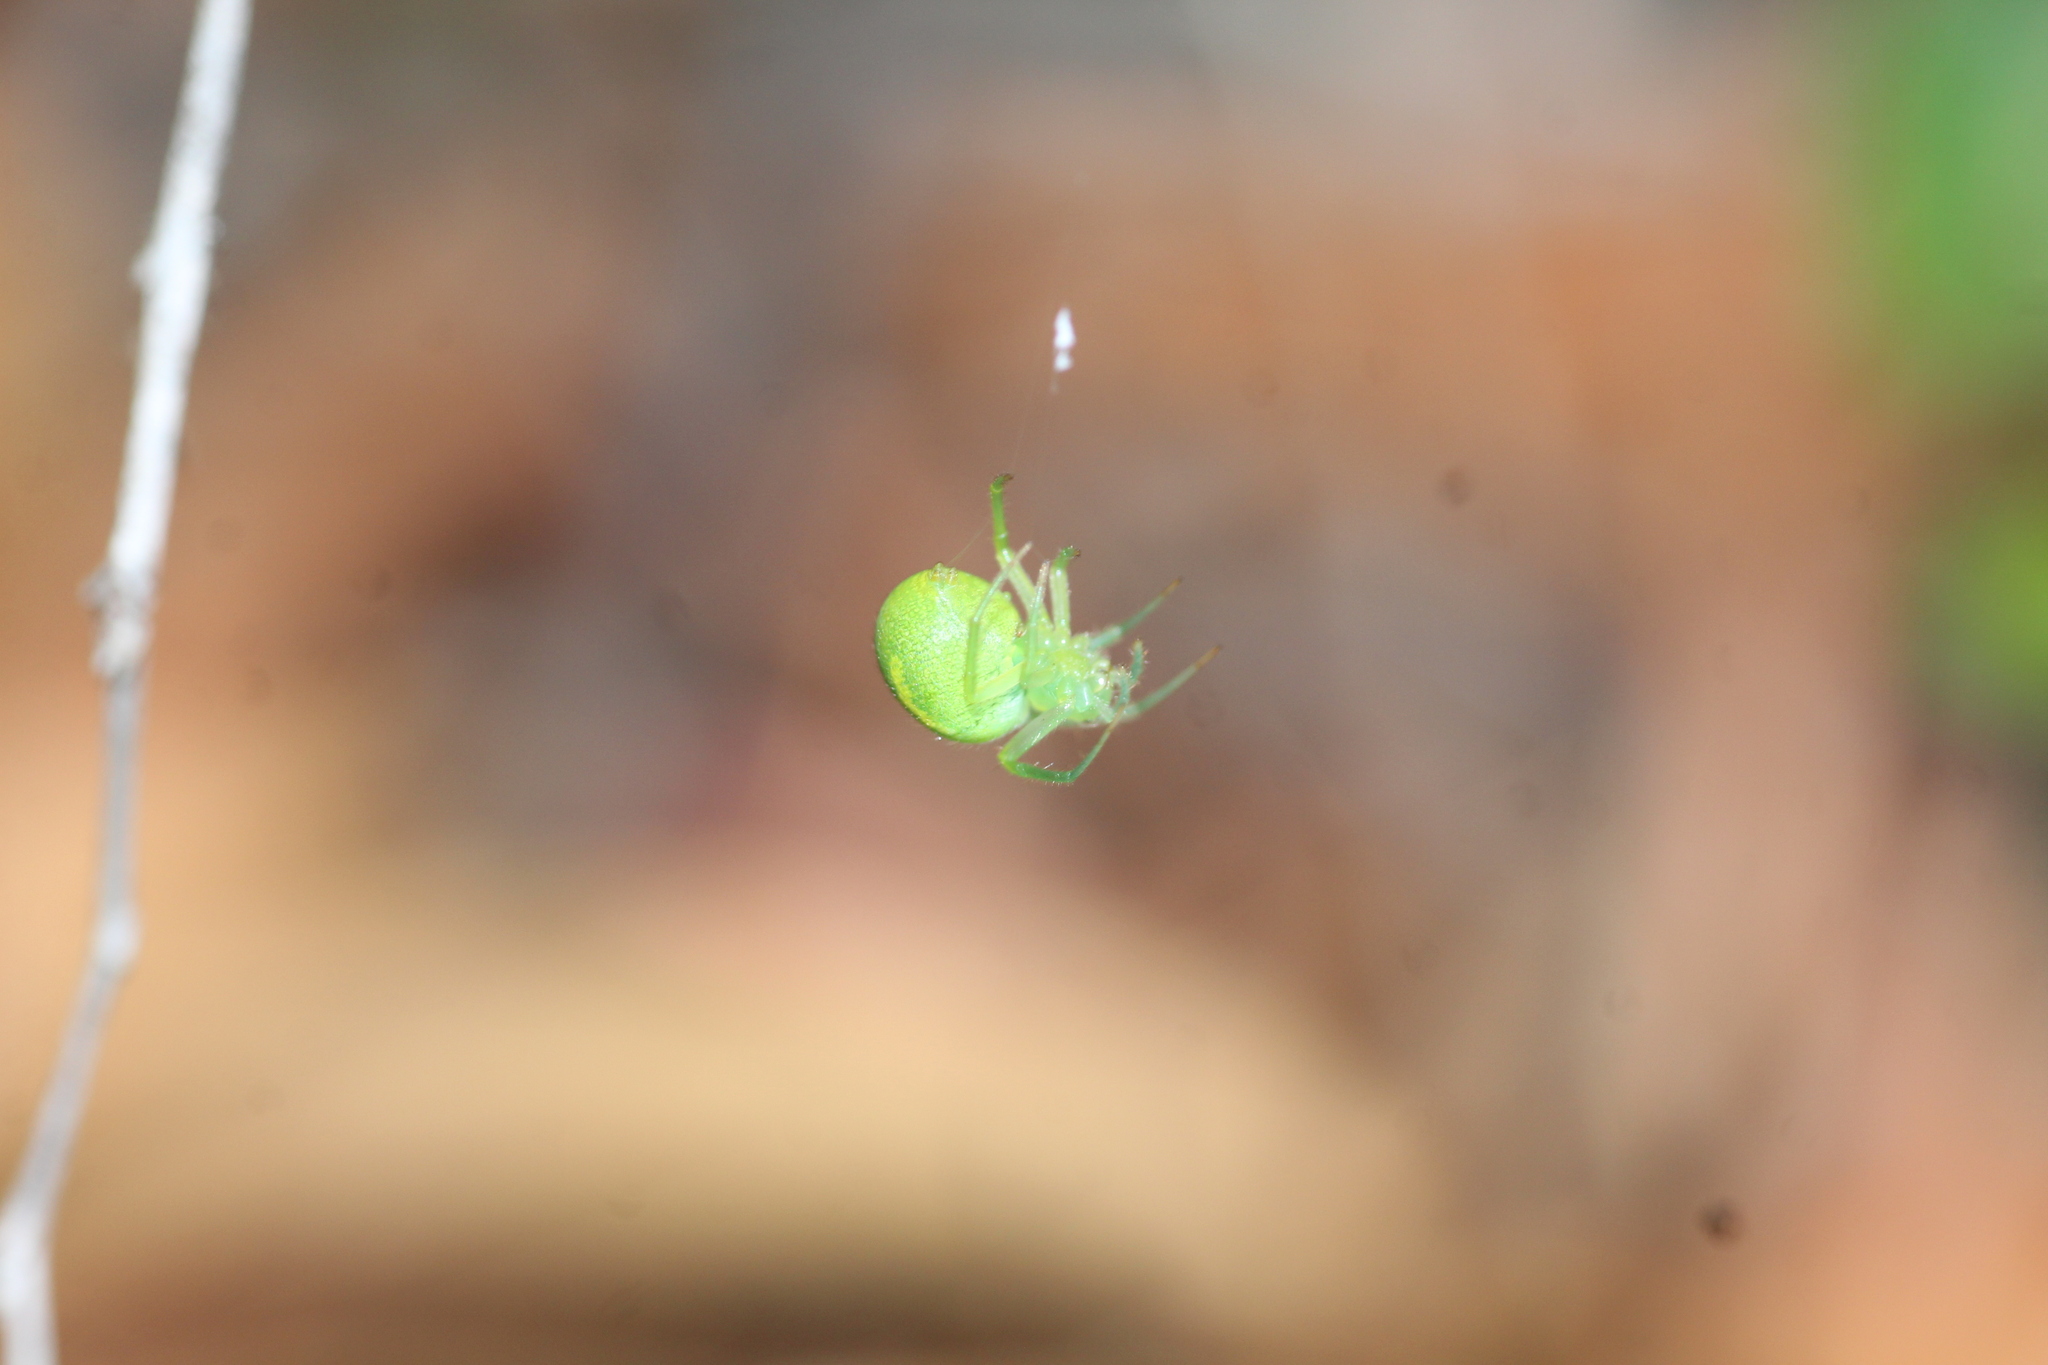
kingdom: Animalia
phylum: Arthropoda
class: Arachnida
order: Araneae
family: Araneidae
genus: Araneus
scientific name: Araneus circulissparsus
